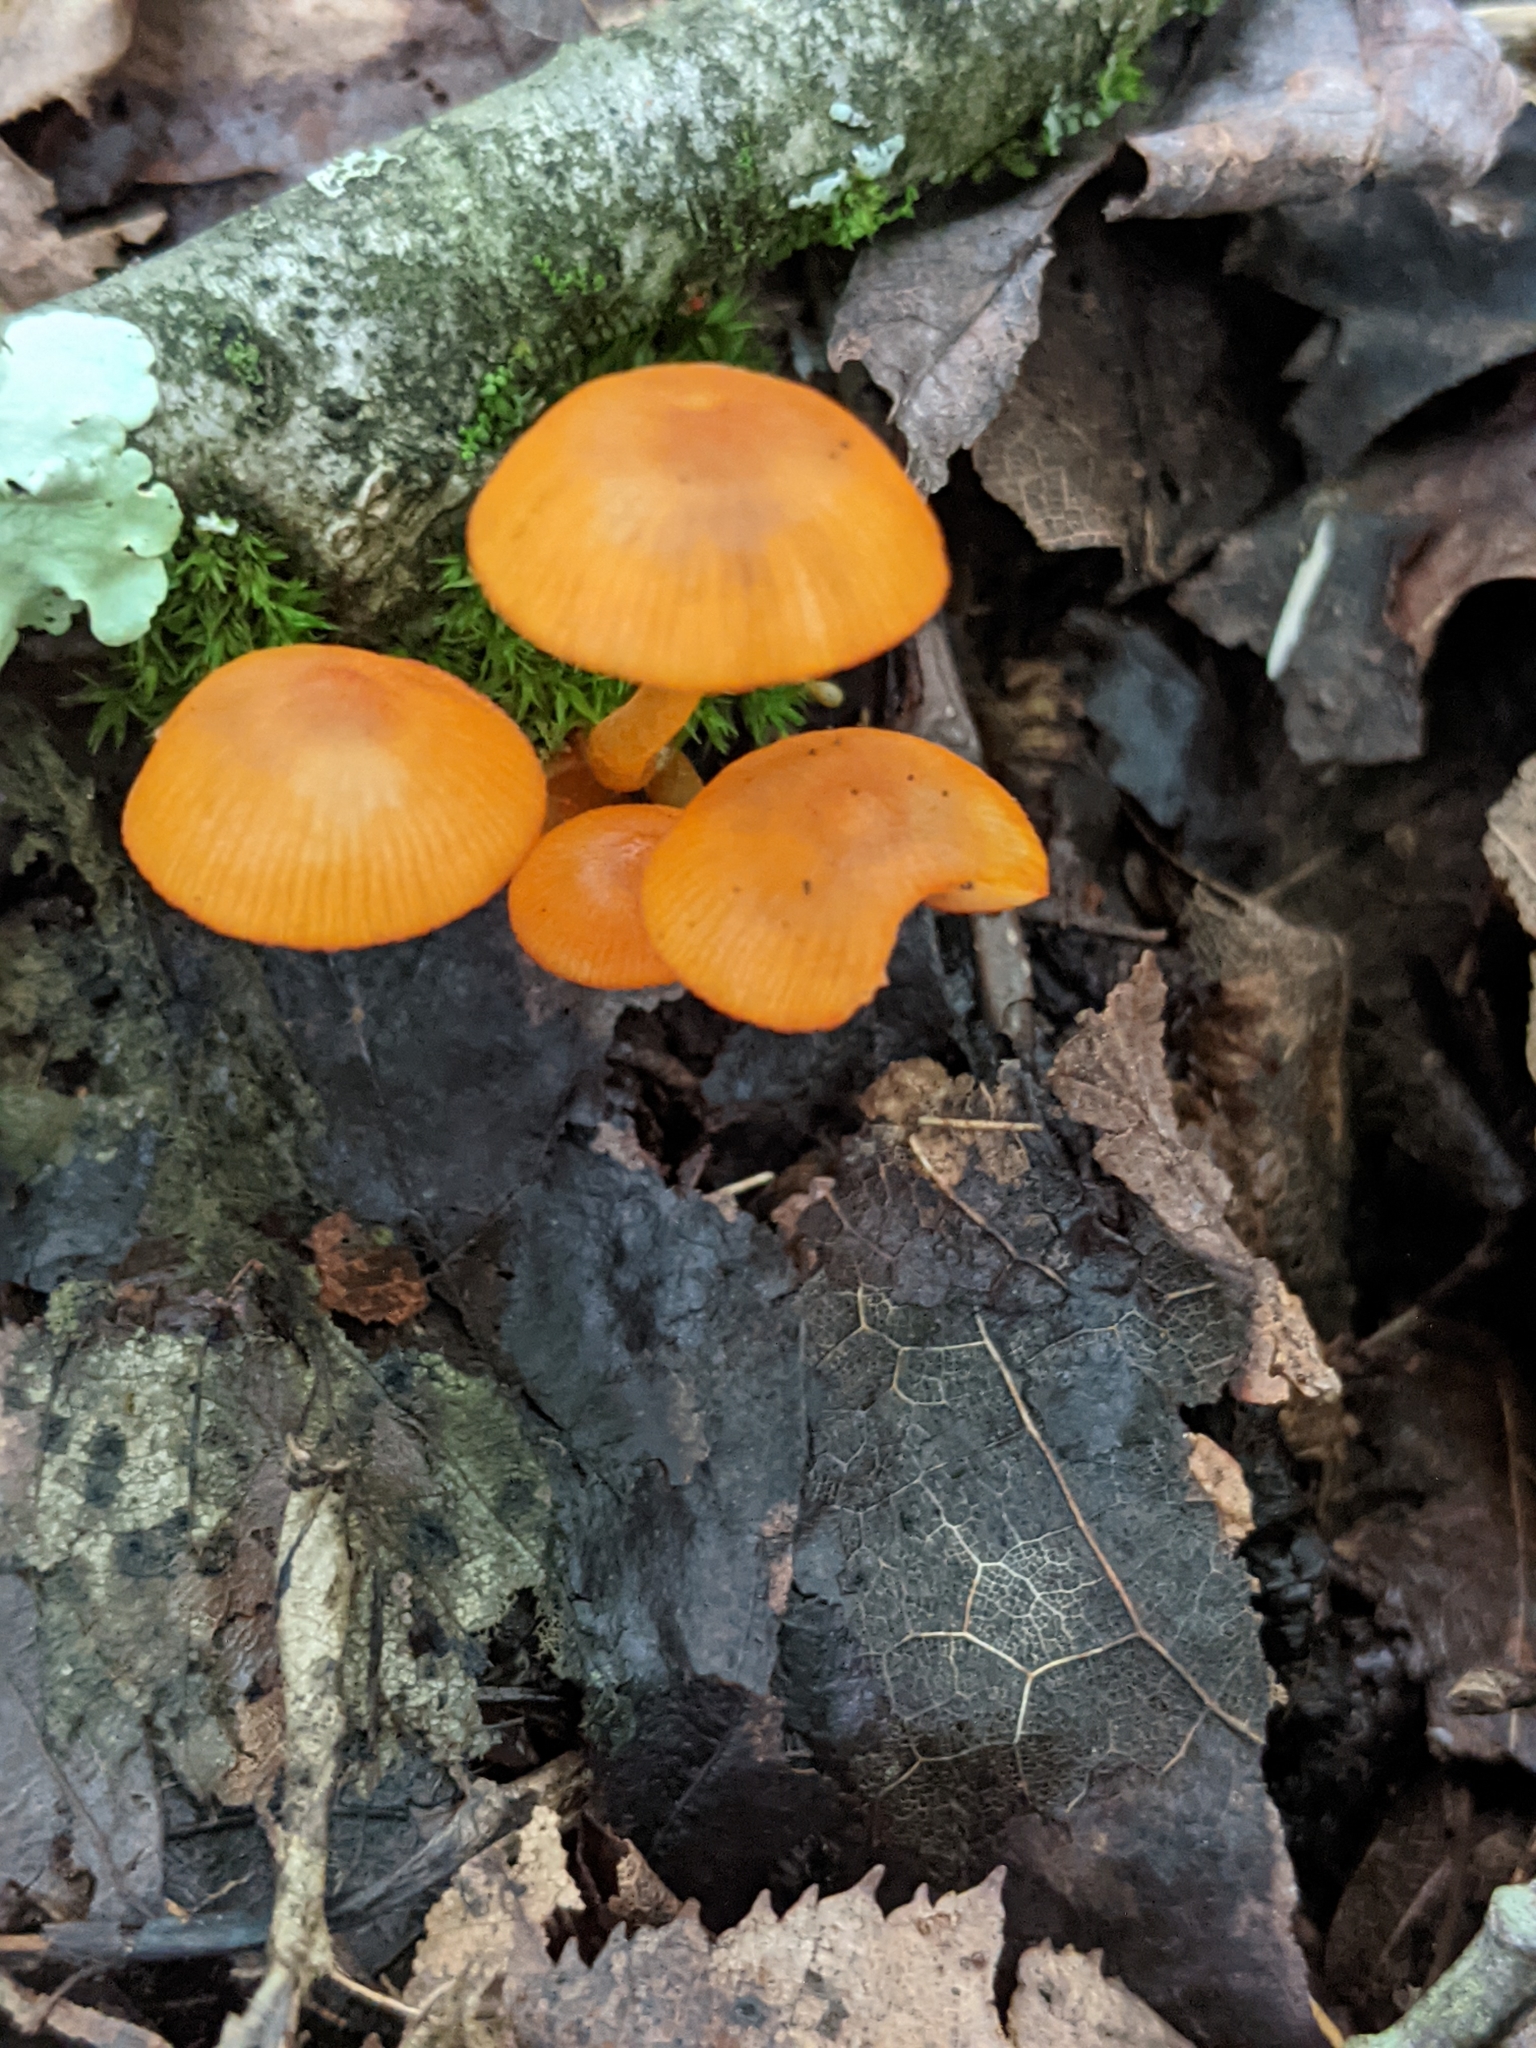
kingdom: Fungi
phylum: Basidiomycota
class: Agaricomycetes
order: Agaricales
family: Mycenaceae
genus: Mycena
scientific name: Mycena leaiana
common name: Orange mycena
